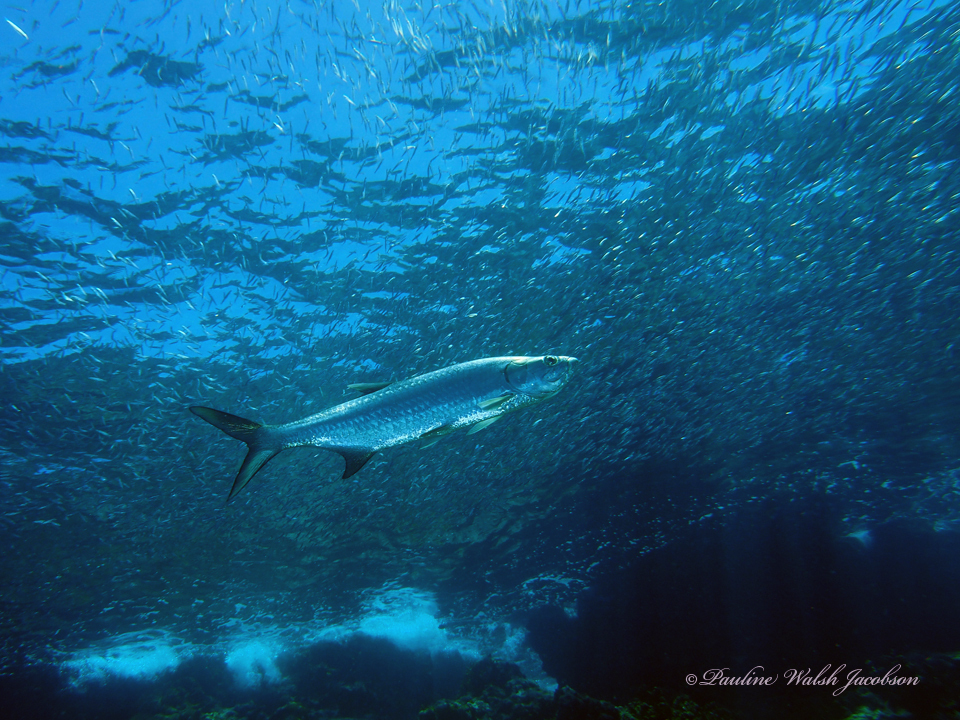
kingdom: Animalia
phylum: Chordata
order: Elopiformes
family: Megalopidae
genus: Megalops
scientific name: Megalops atlanticus
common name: Tarpon
